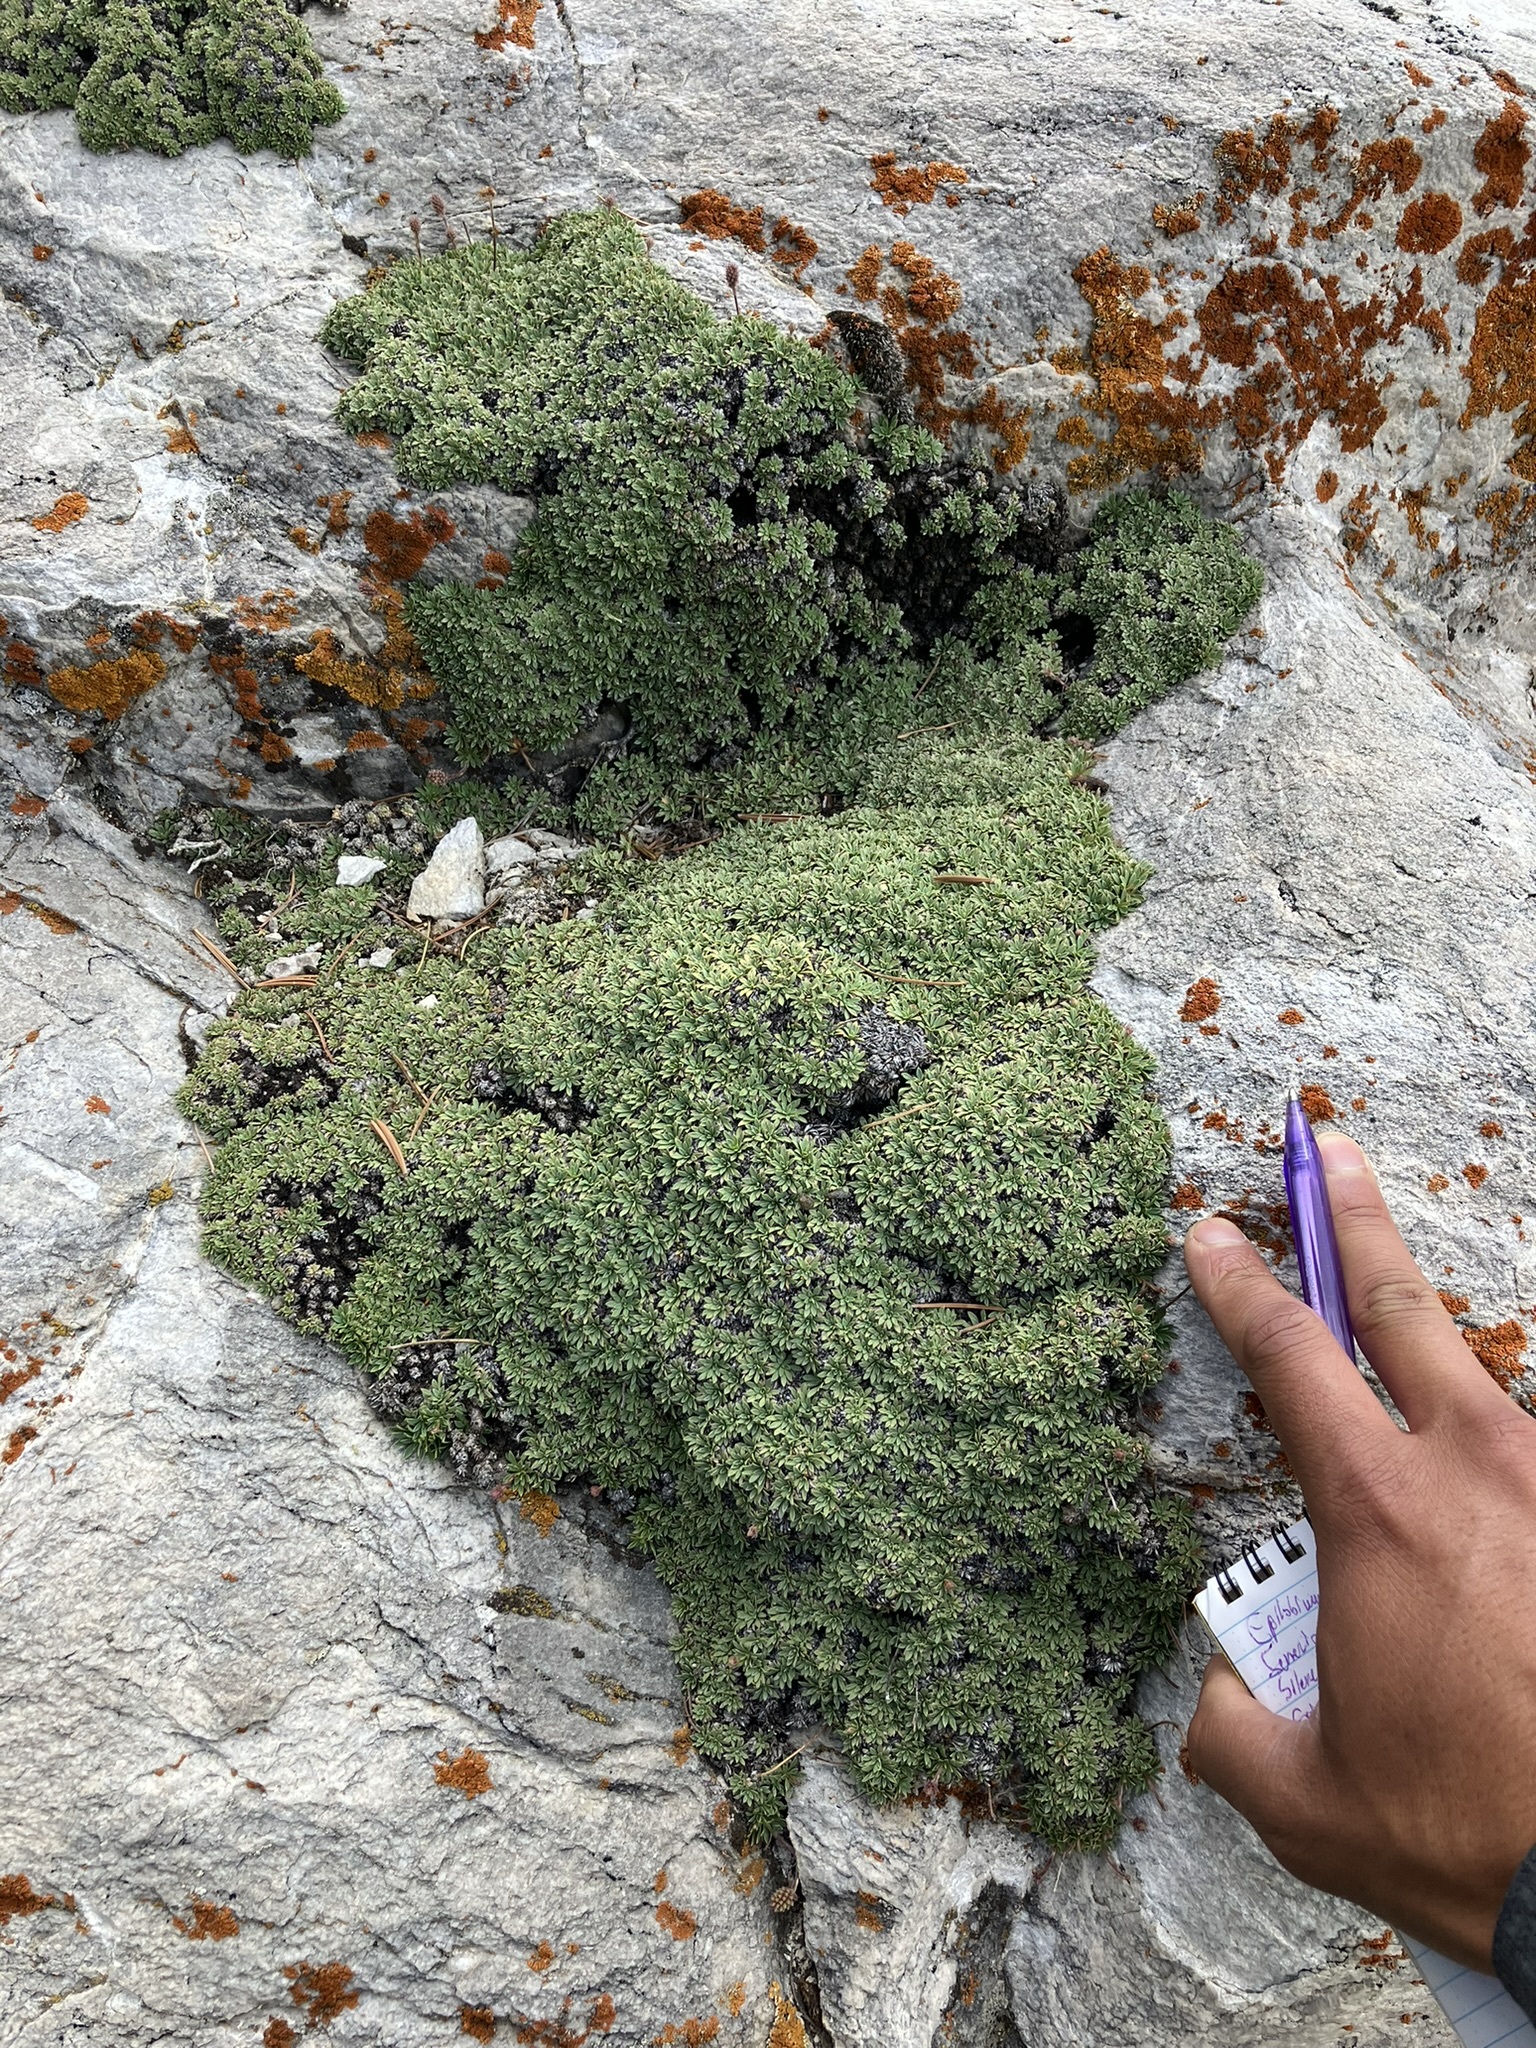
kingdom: Plantae
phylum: Tracheophyta
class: Magnoliopsida
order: Rosales
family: Rosaceae
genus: Petrophytum
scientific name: Petrophytum caespitosum
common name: Mat rockspirea
